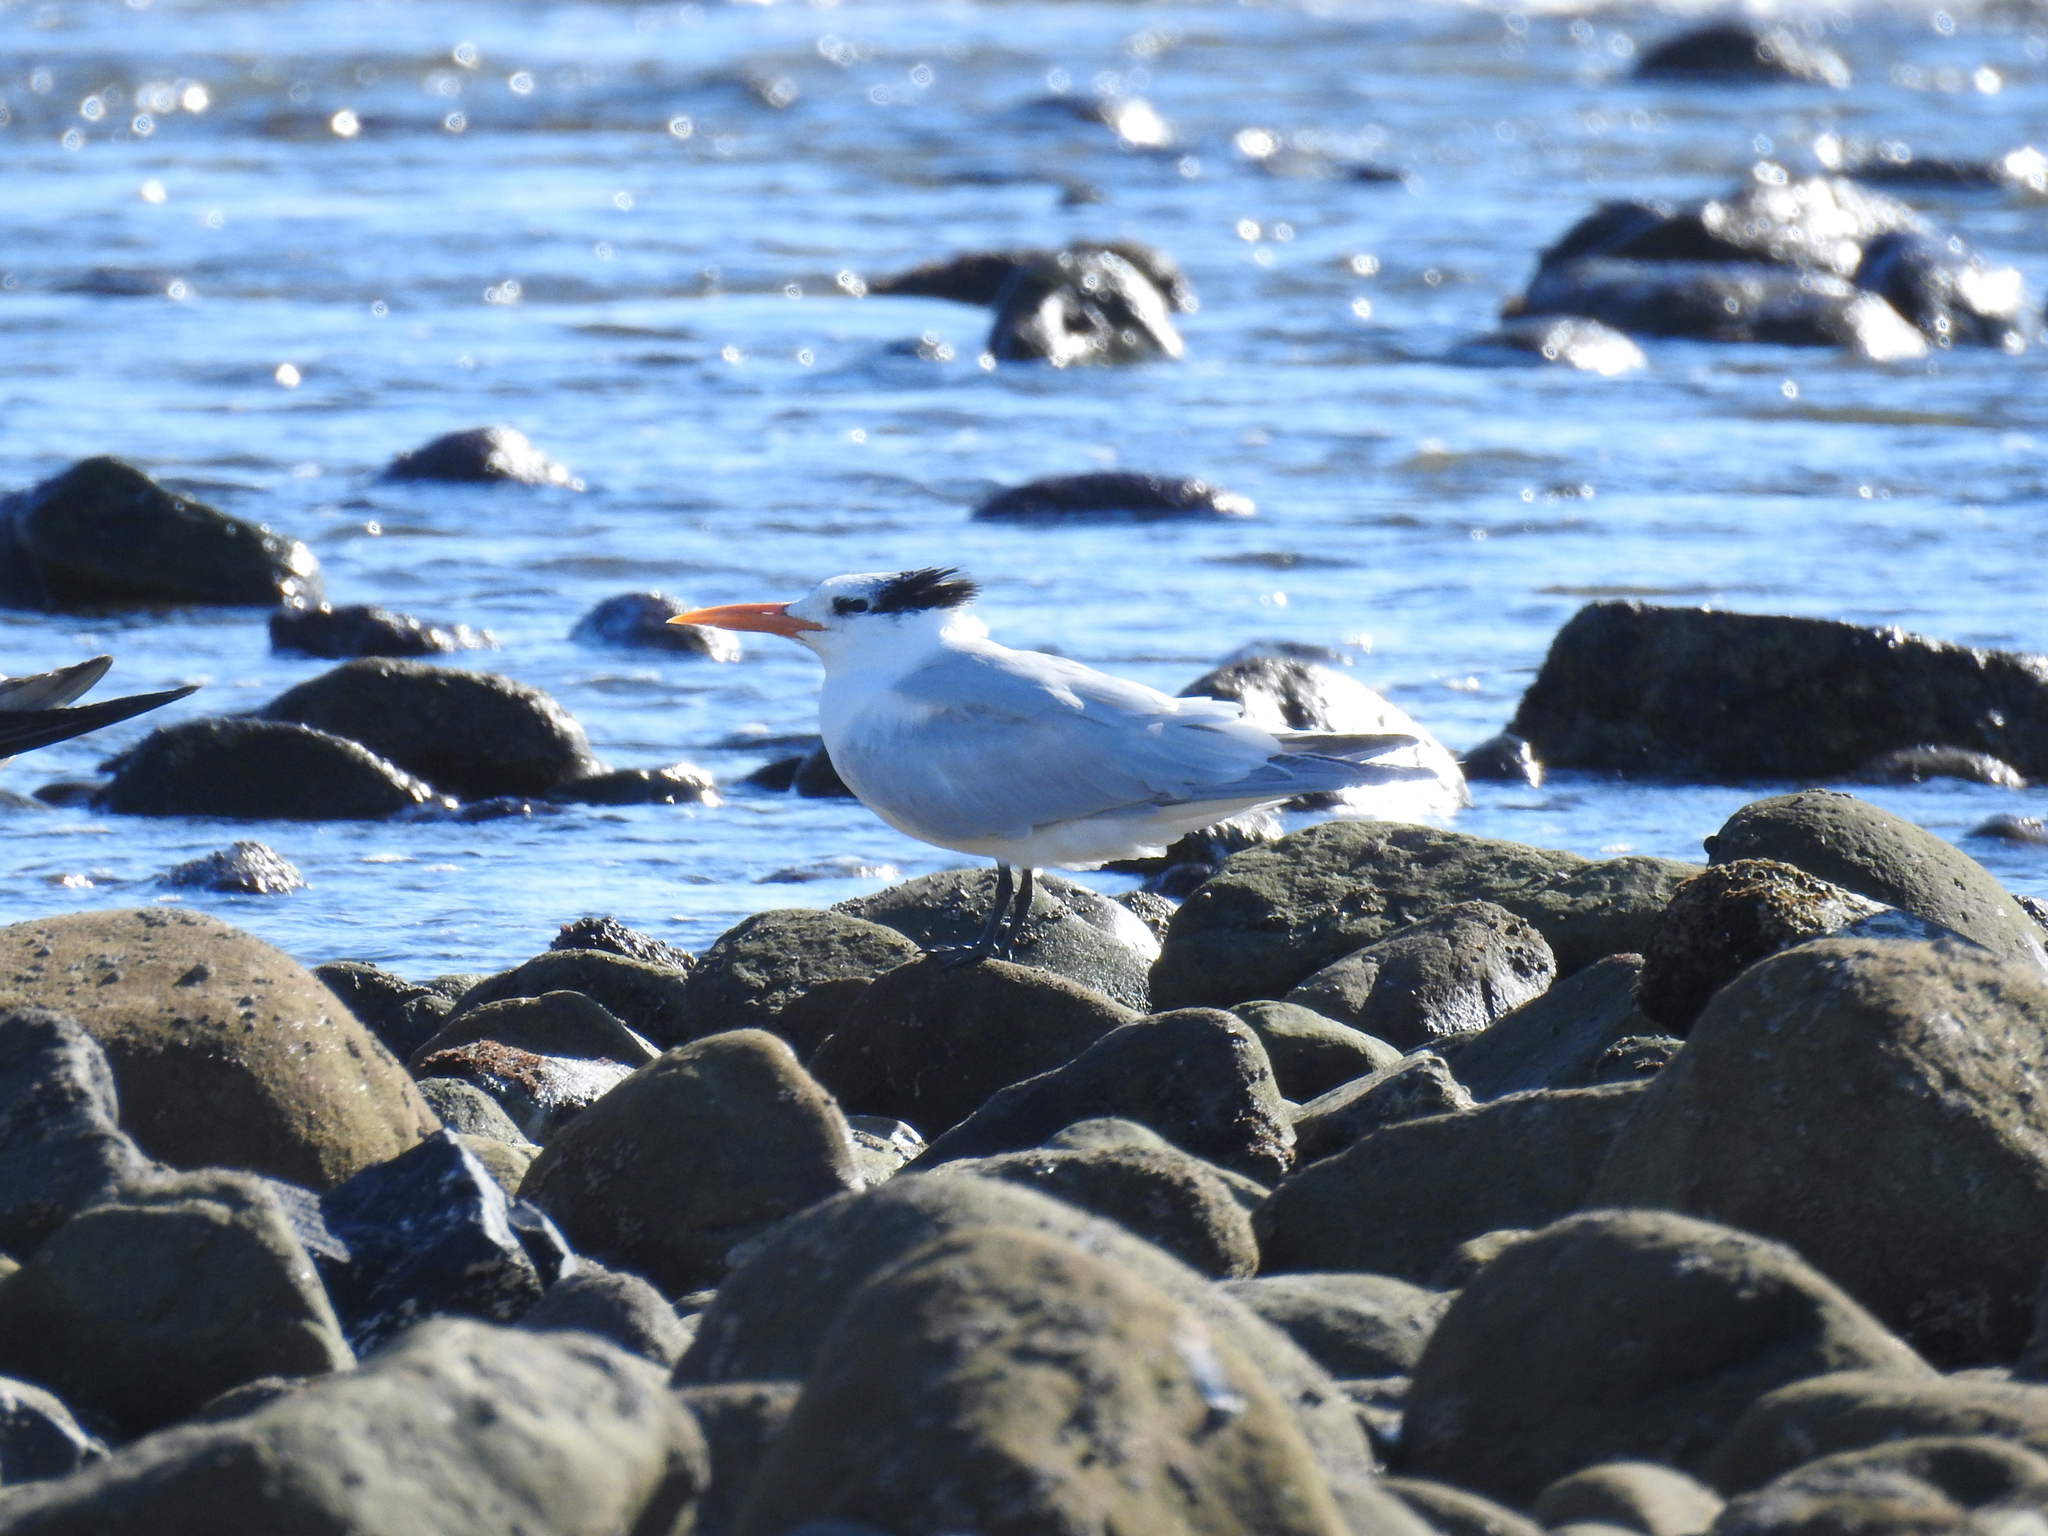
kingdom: Animalia
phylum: Chordata
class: Aves
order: Charadriiformes
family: Laridae
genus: Thalasseus
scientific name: Thalasseus maximus
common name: Royal tern
